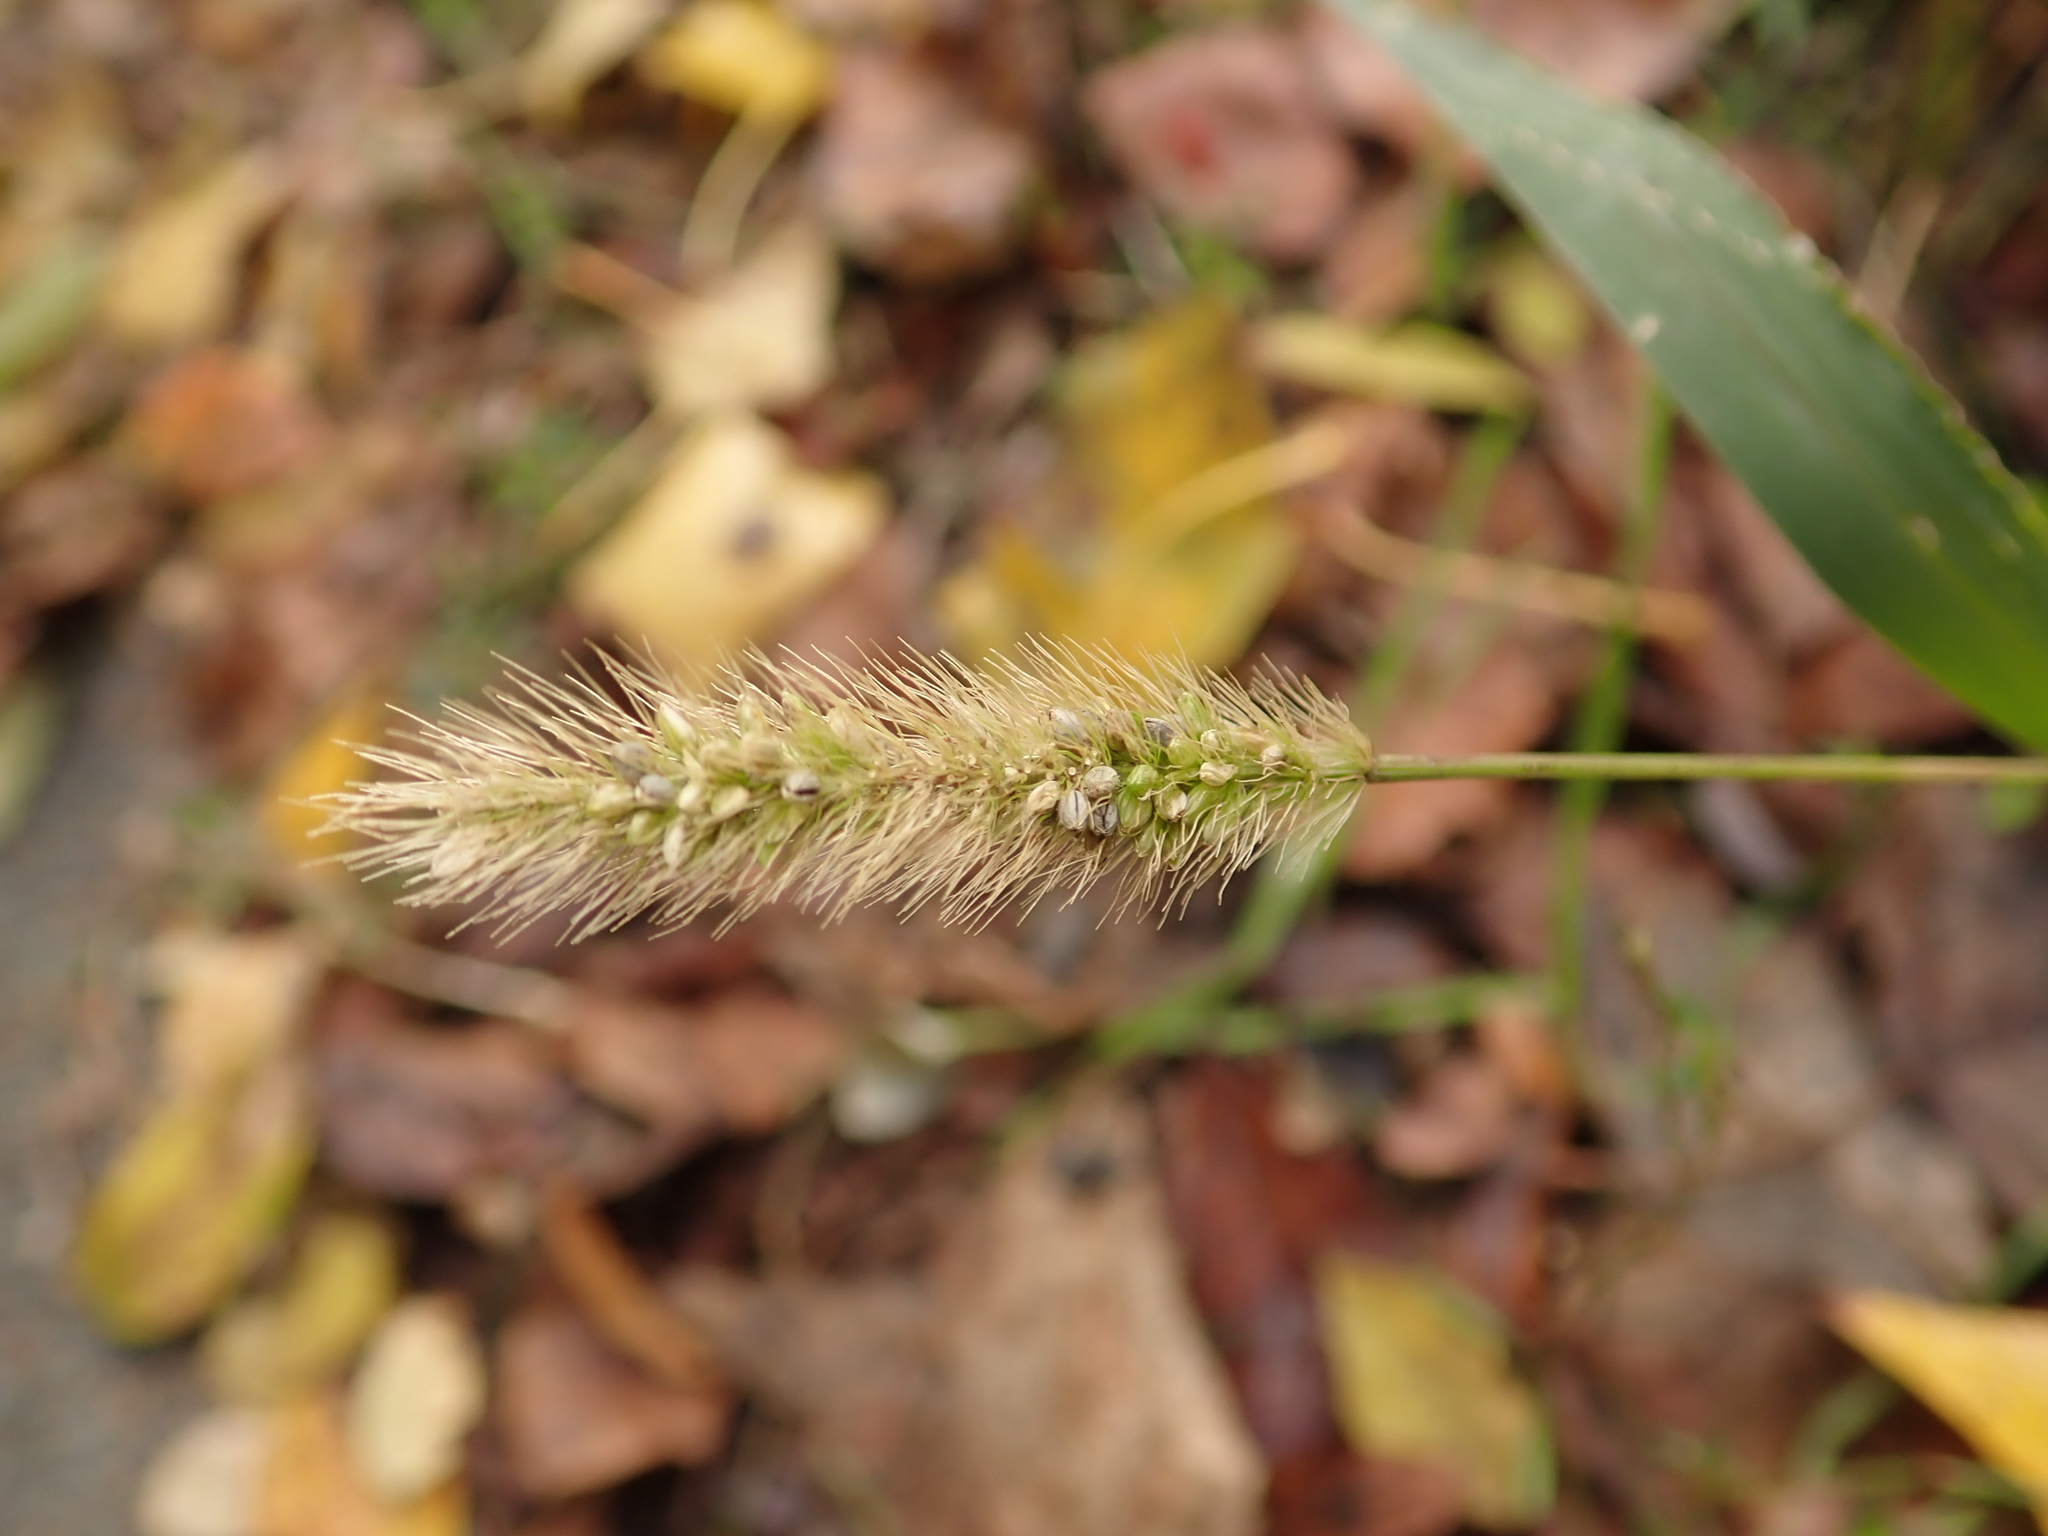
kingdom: Plantae
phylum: Tracheophyta
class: Liliopsida
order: Poales
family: Poaceae
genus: Setaria
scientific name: Setaria viridis
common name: Green bristlegrass
